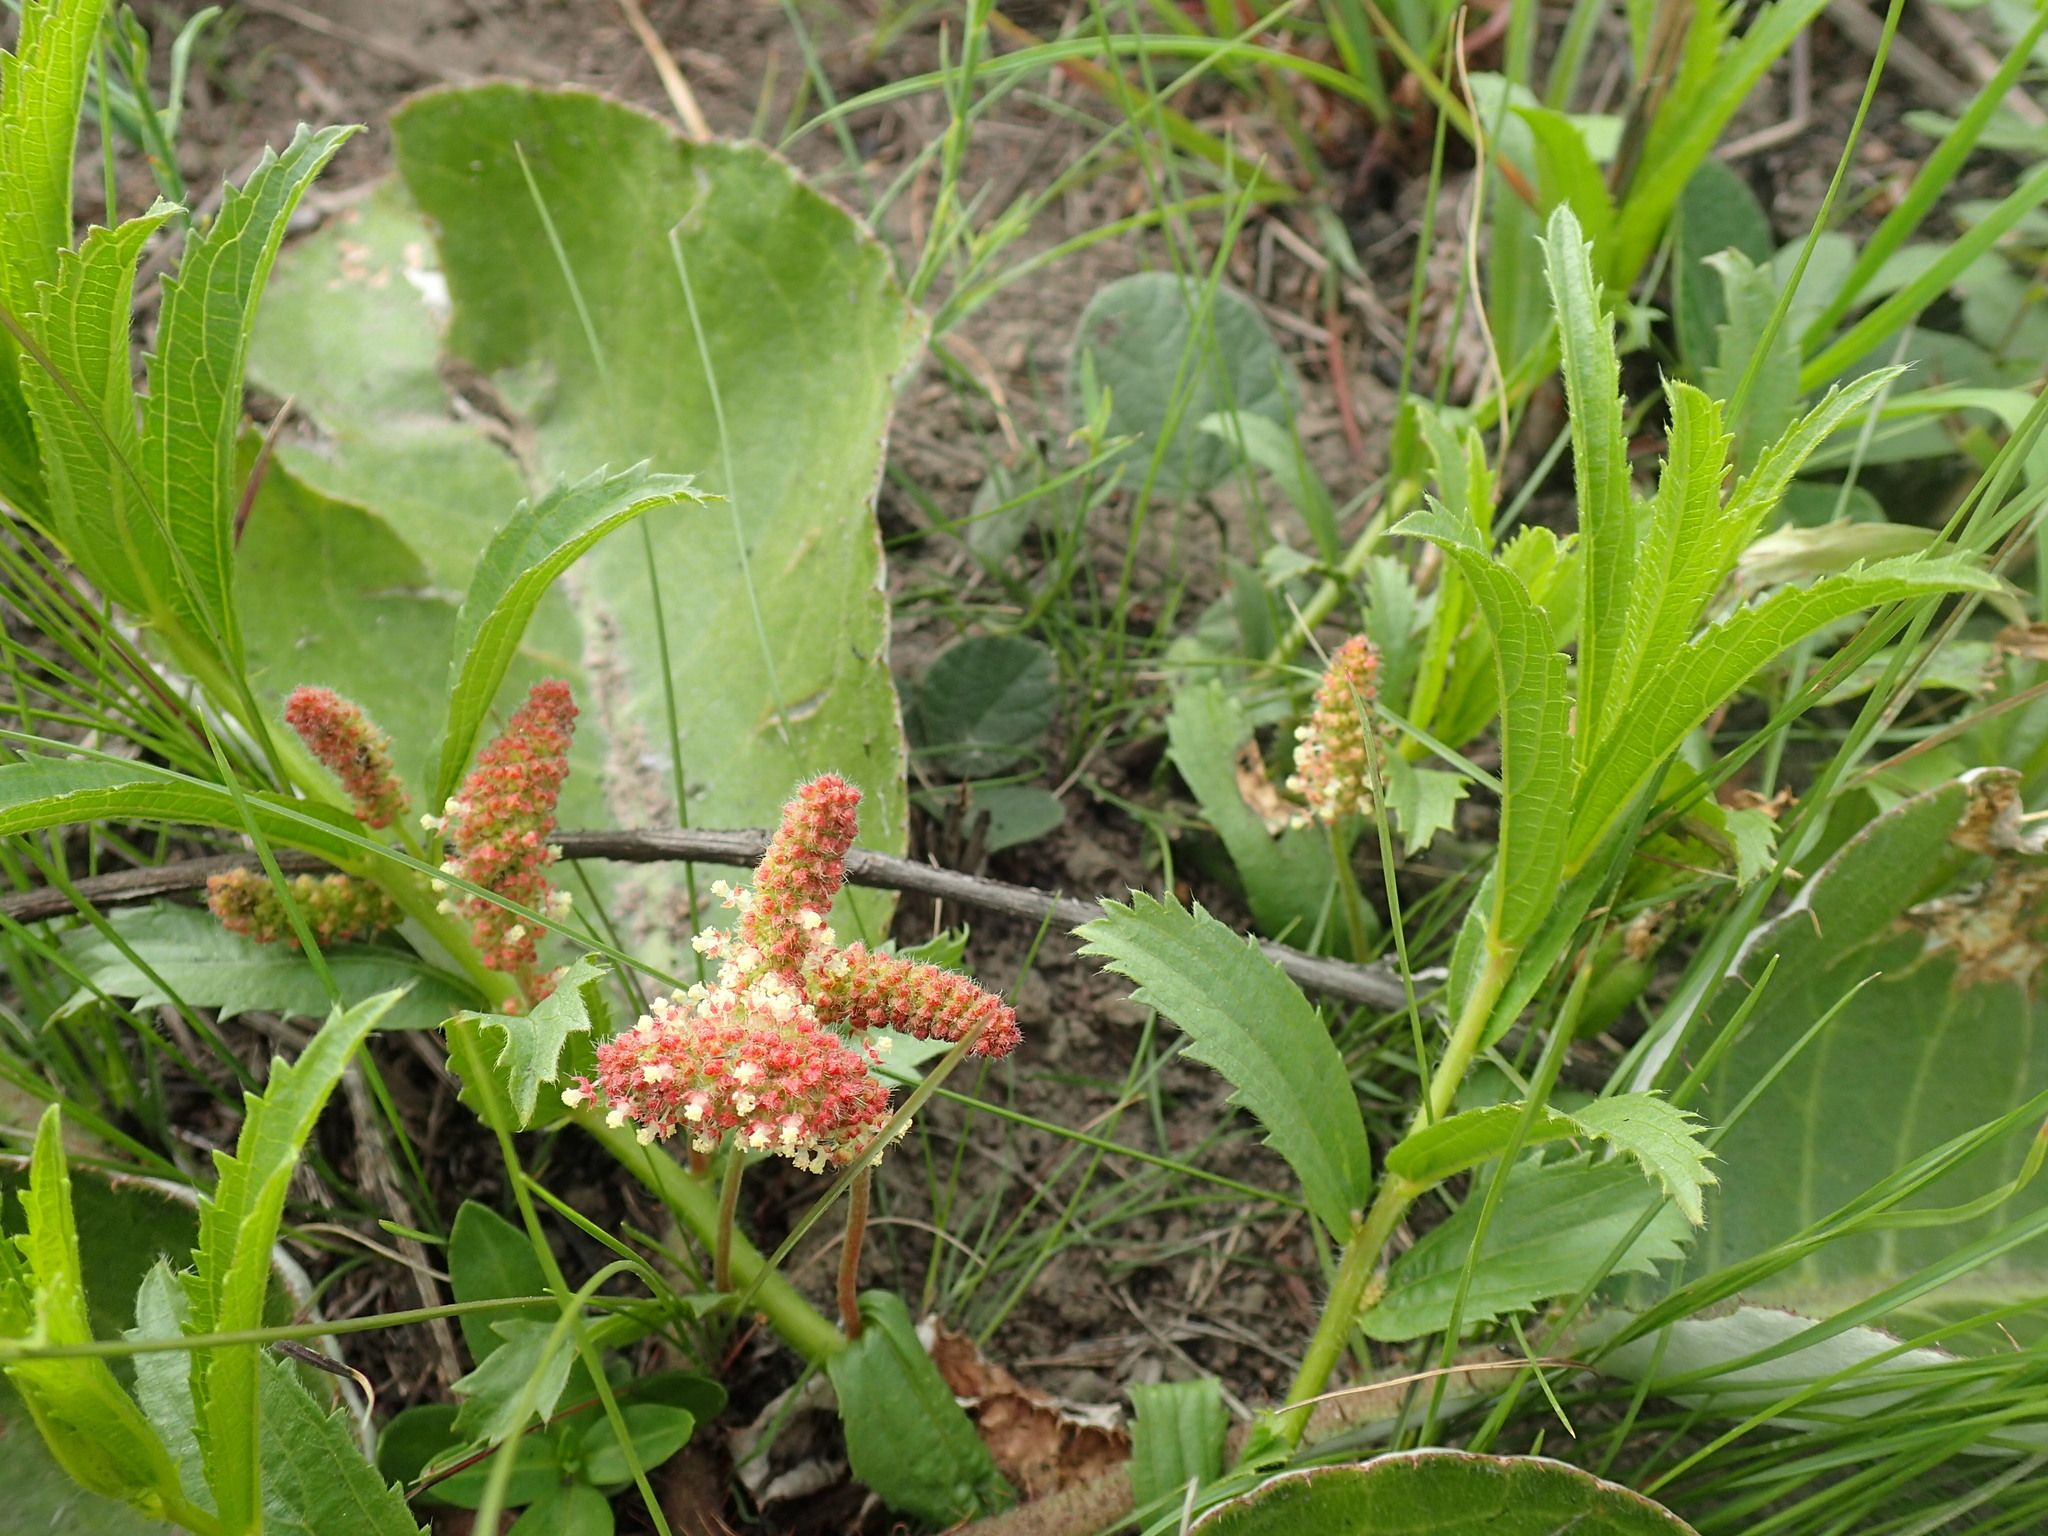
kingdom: Plantae
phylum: Tracheophyta
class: Magnoliopsida
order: Malpighiales
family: Euphorbiaceae
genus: Acalypha
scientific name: Acalypha petiolaris
